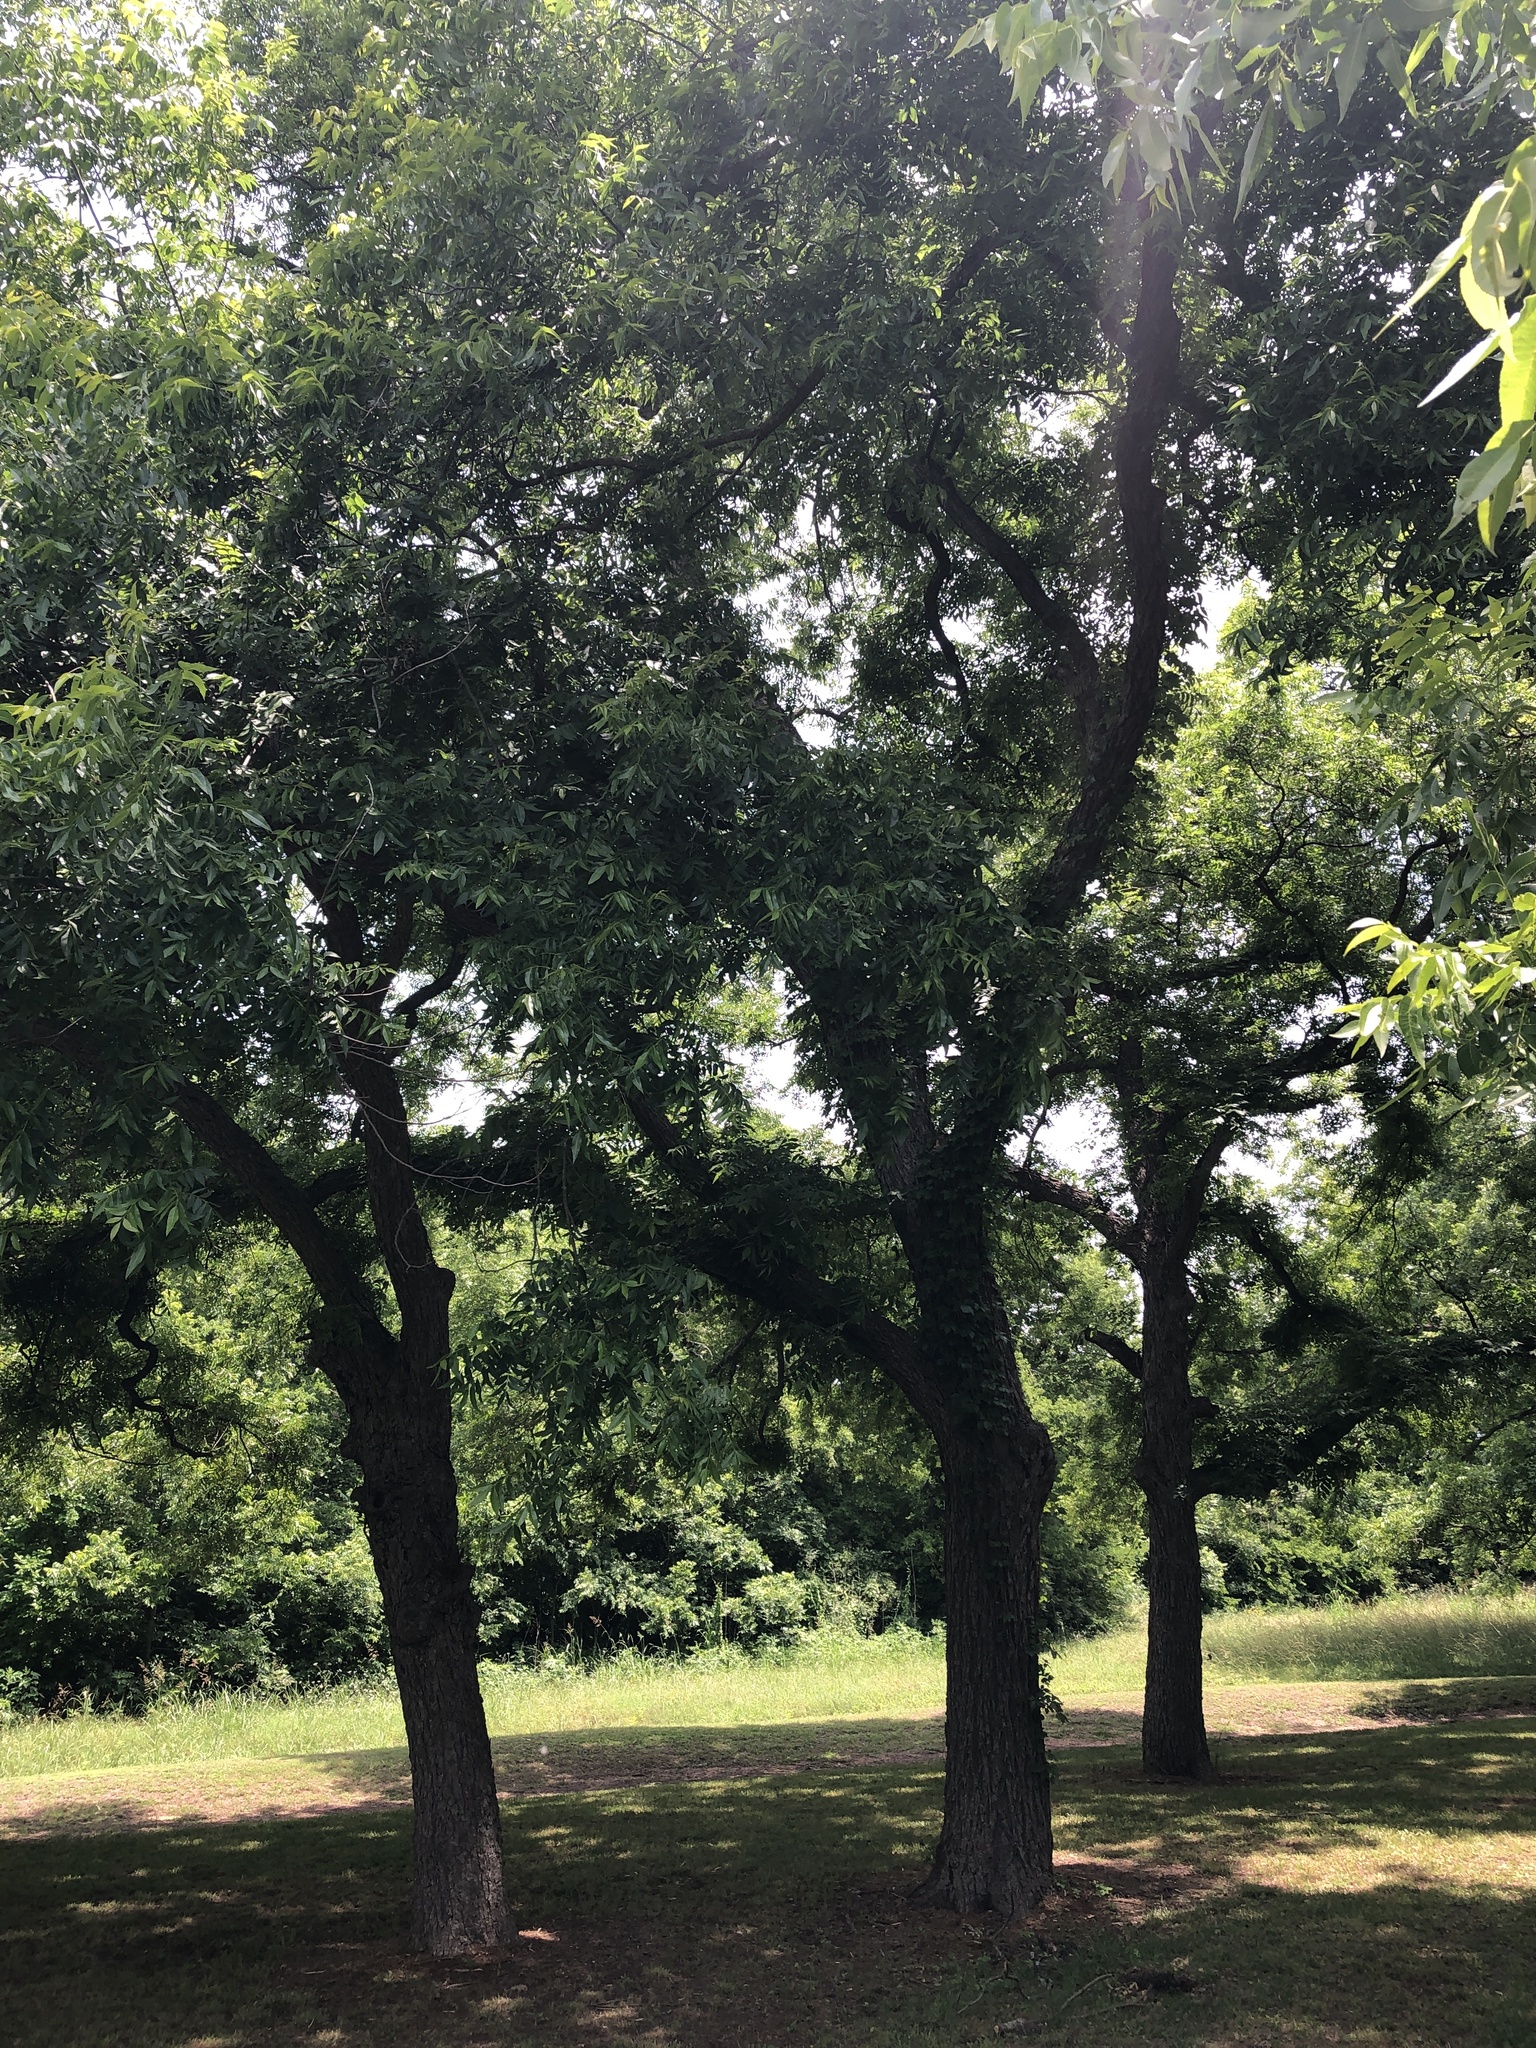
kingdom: Plantae
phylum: Tracheophyta
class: Magnoliopsida
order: Fagales
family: Juglandaceae
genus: Carya
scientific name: Carya illinoinensis
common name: Pecan
